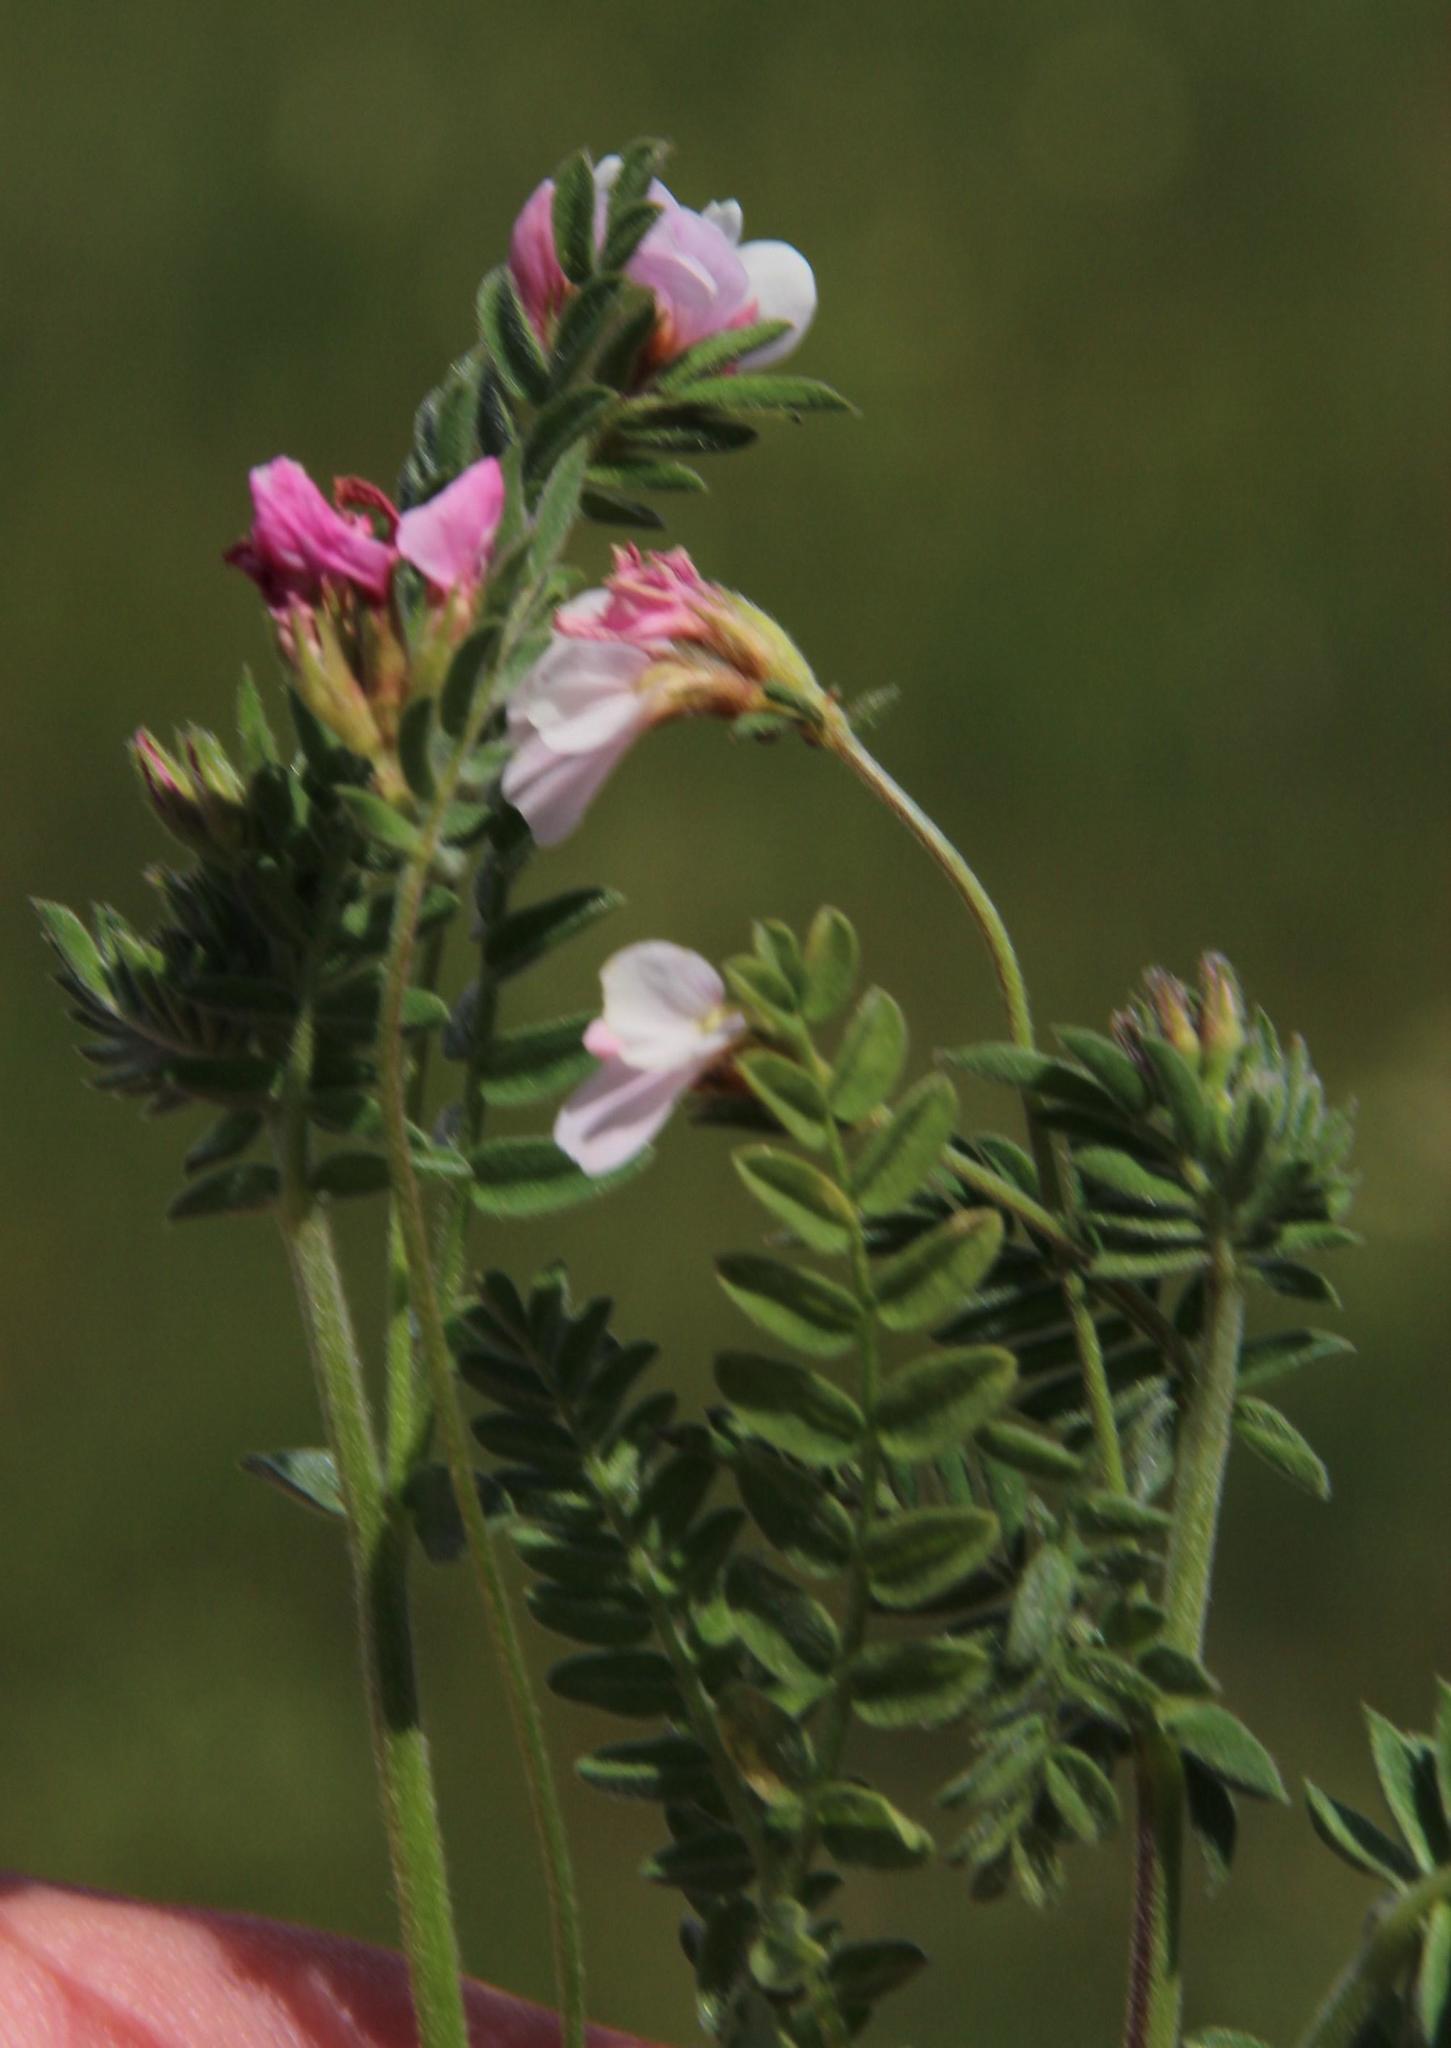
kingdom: Plantae
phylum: Tracheophyta
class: Magnoliopsida
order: Fabales
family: Fabaceae
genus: Ornithopus
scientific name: Ornithopus sativus
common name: Serradella
